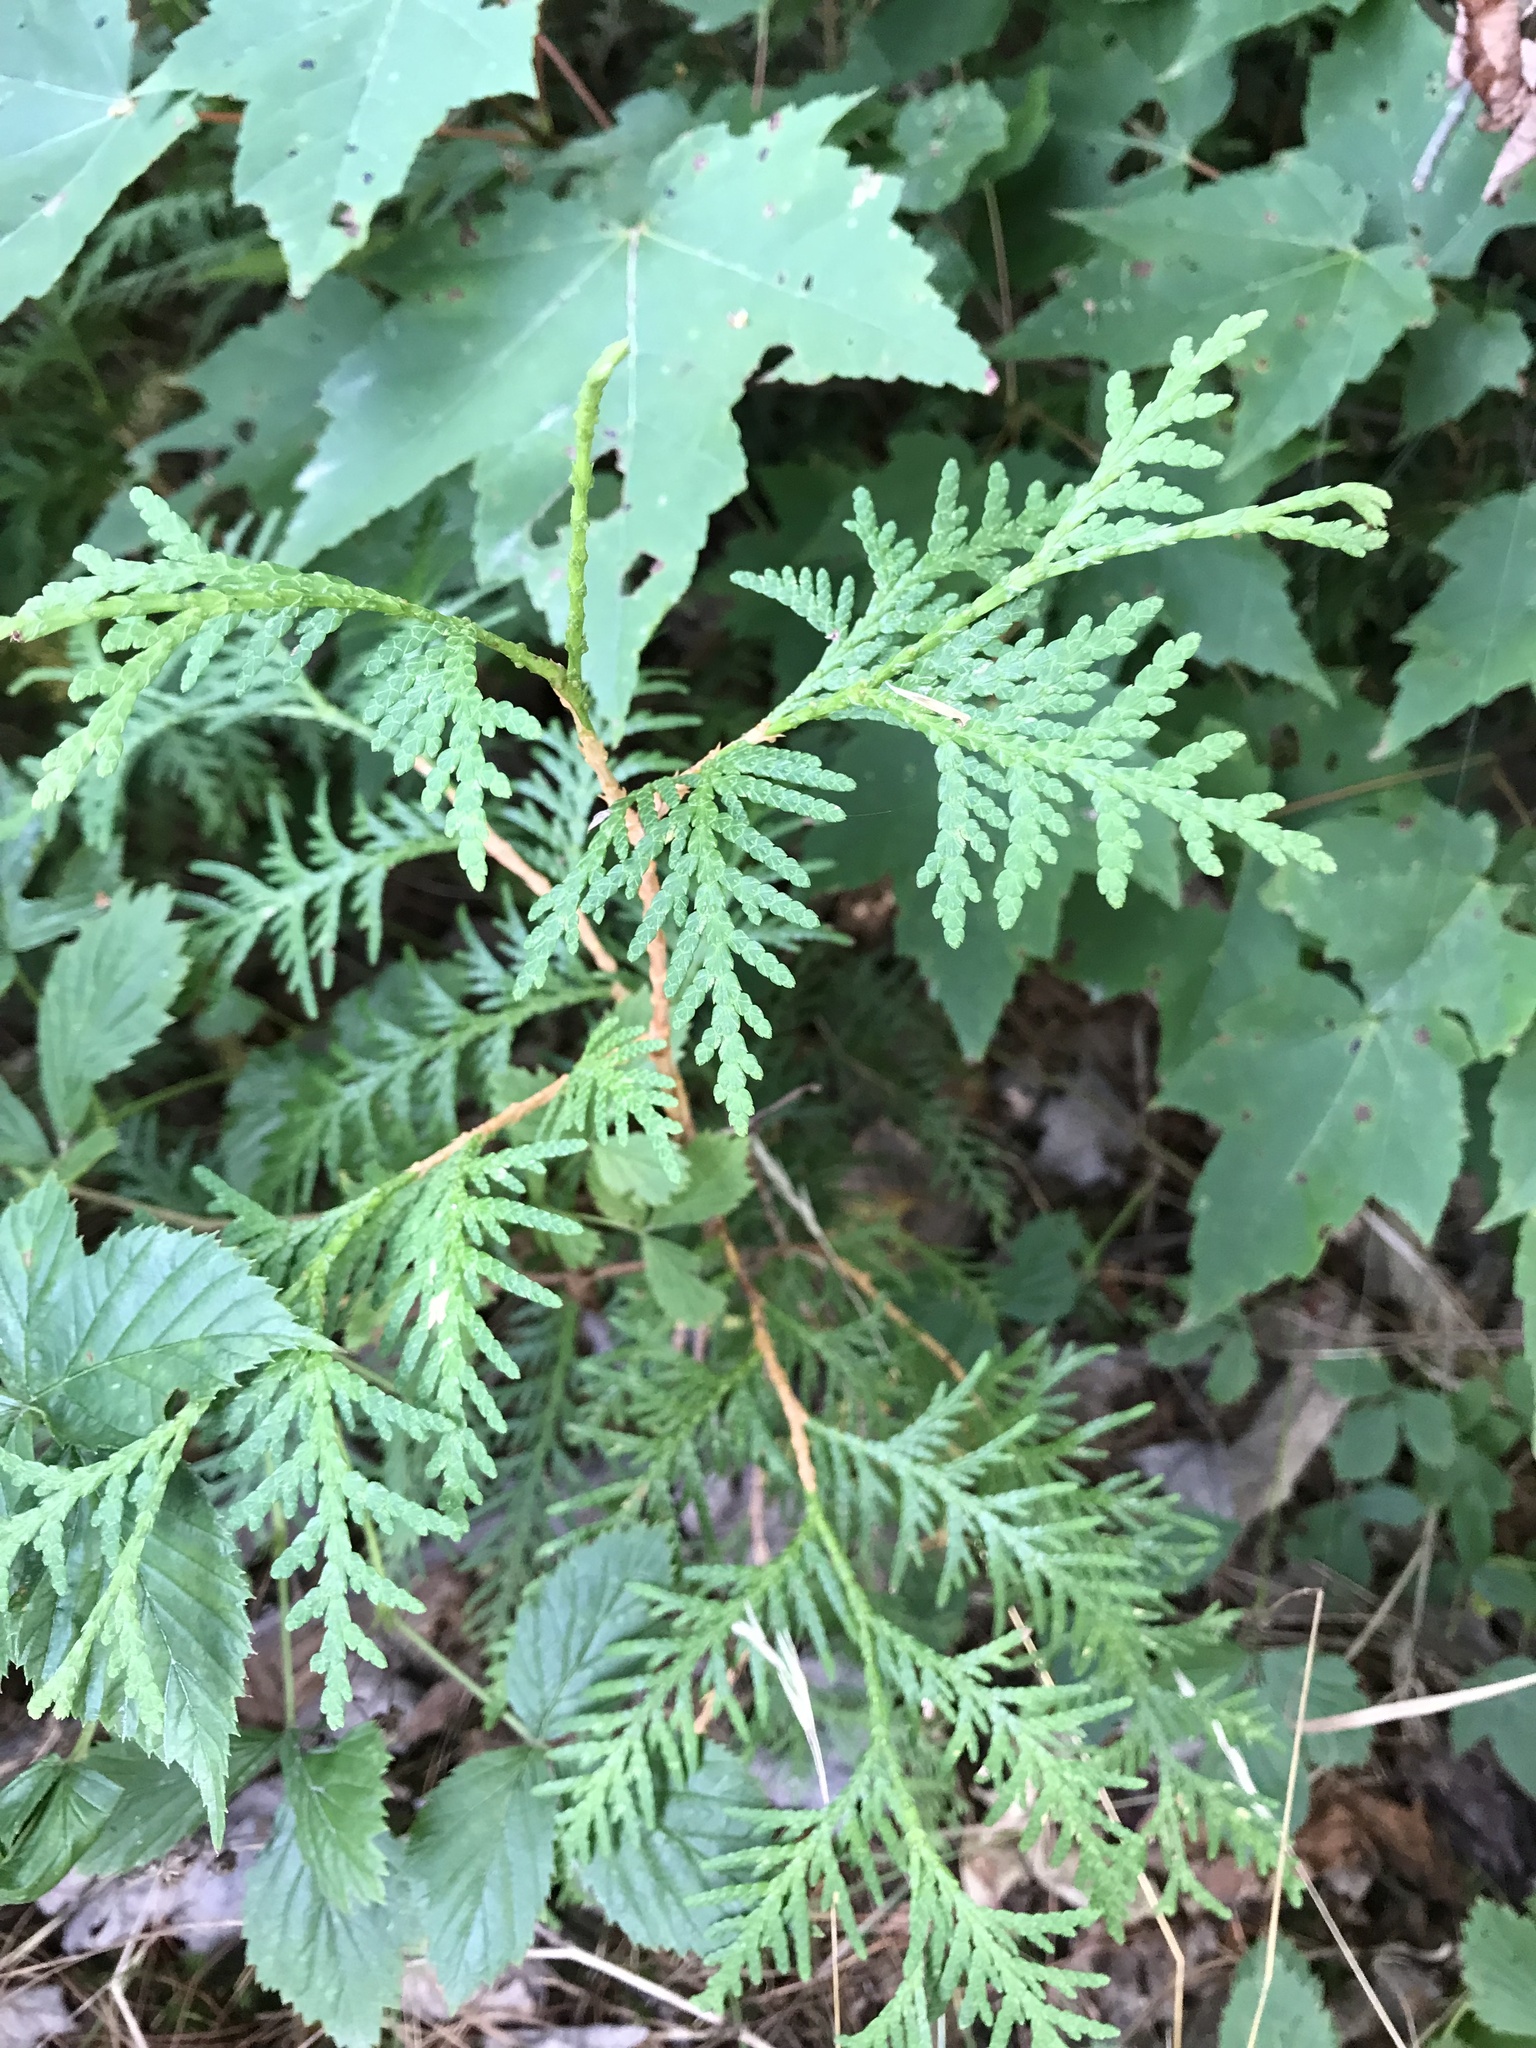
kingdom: Plantae
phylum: Tracheophyta
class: Pinopsida
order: Pinales
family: Cupressaceae
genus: Thuja
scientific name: Thuja occidentalis
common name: Northern white-cedar
